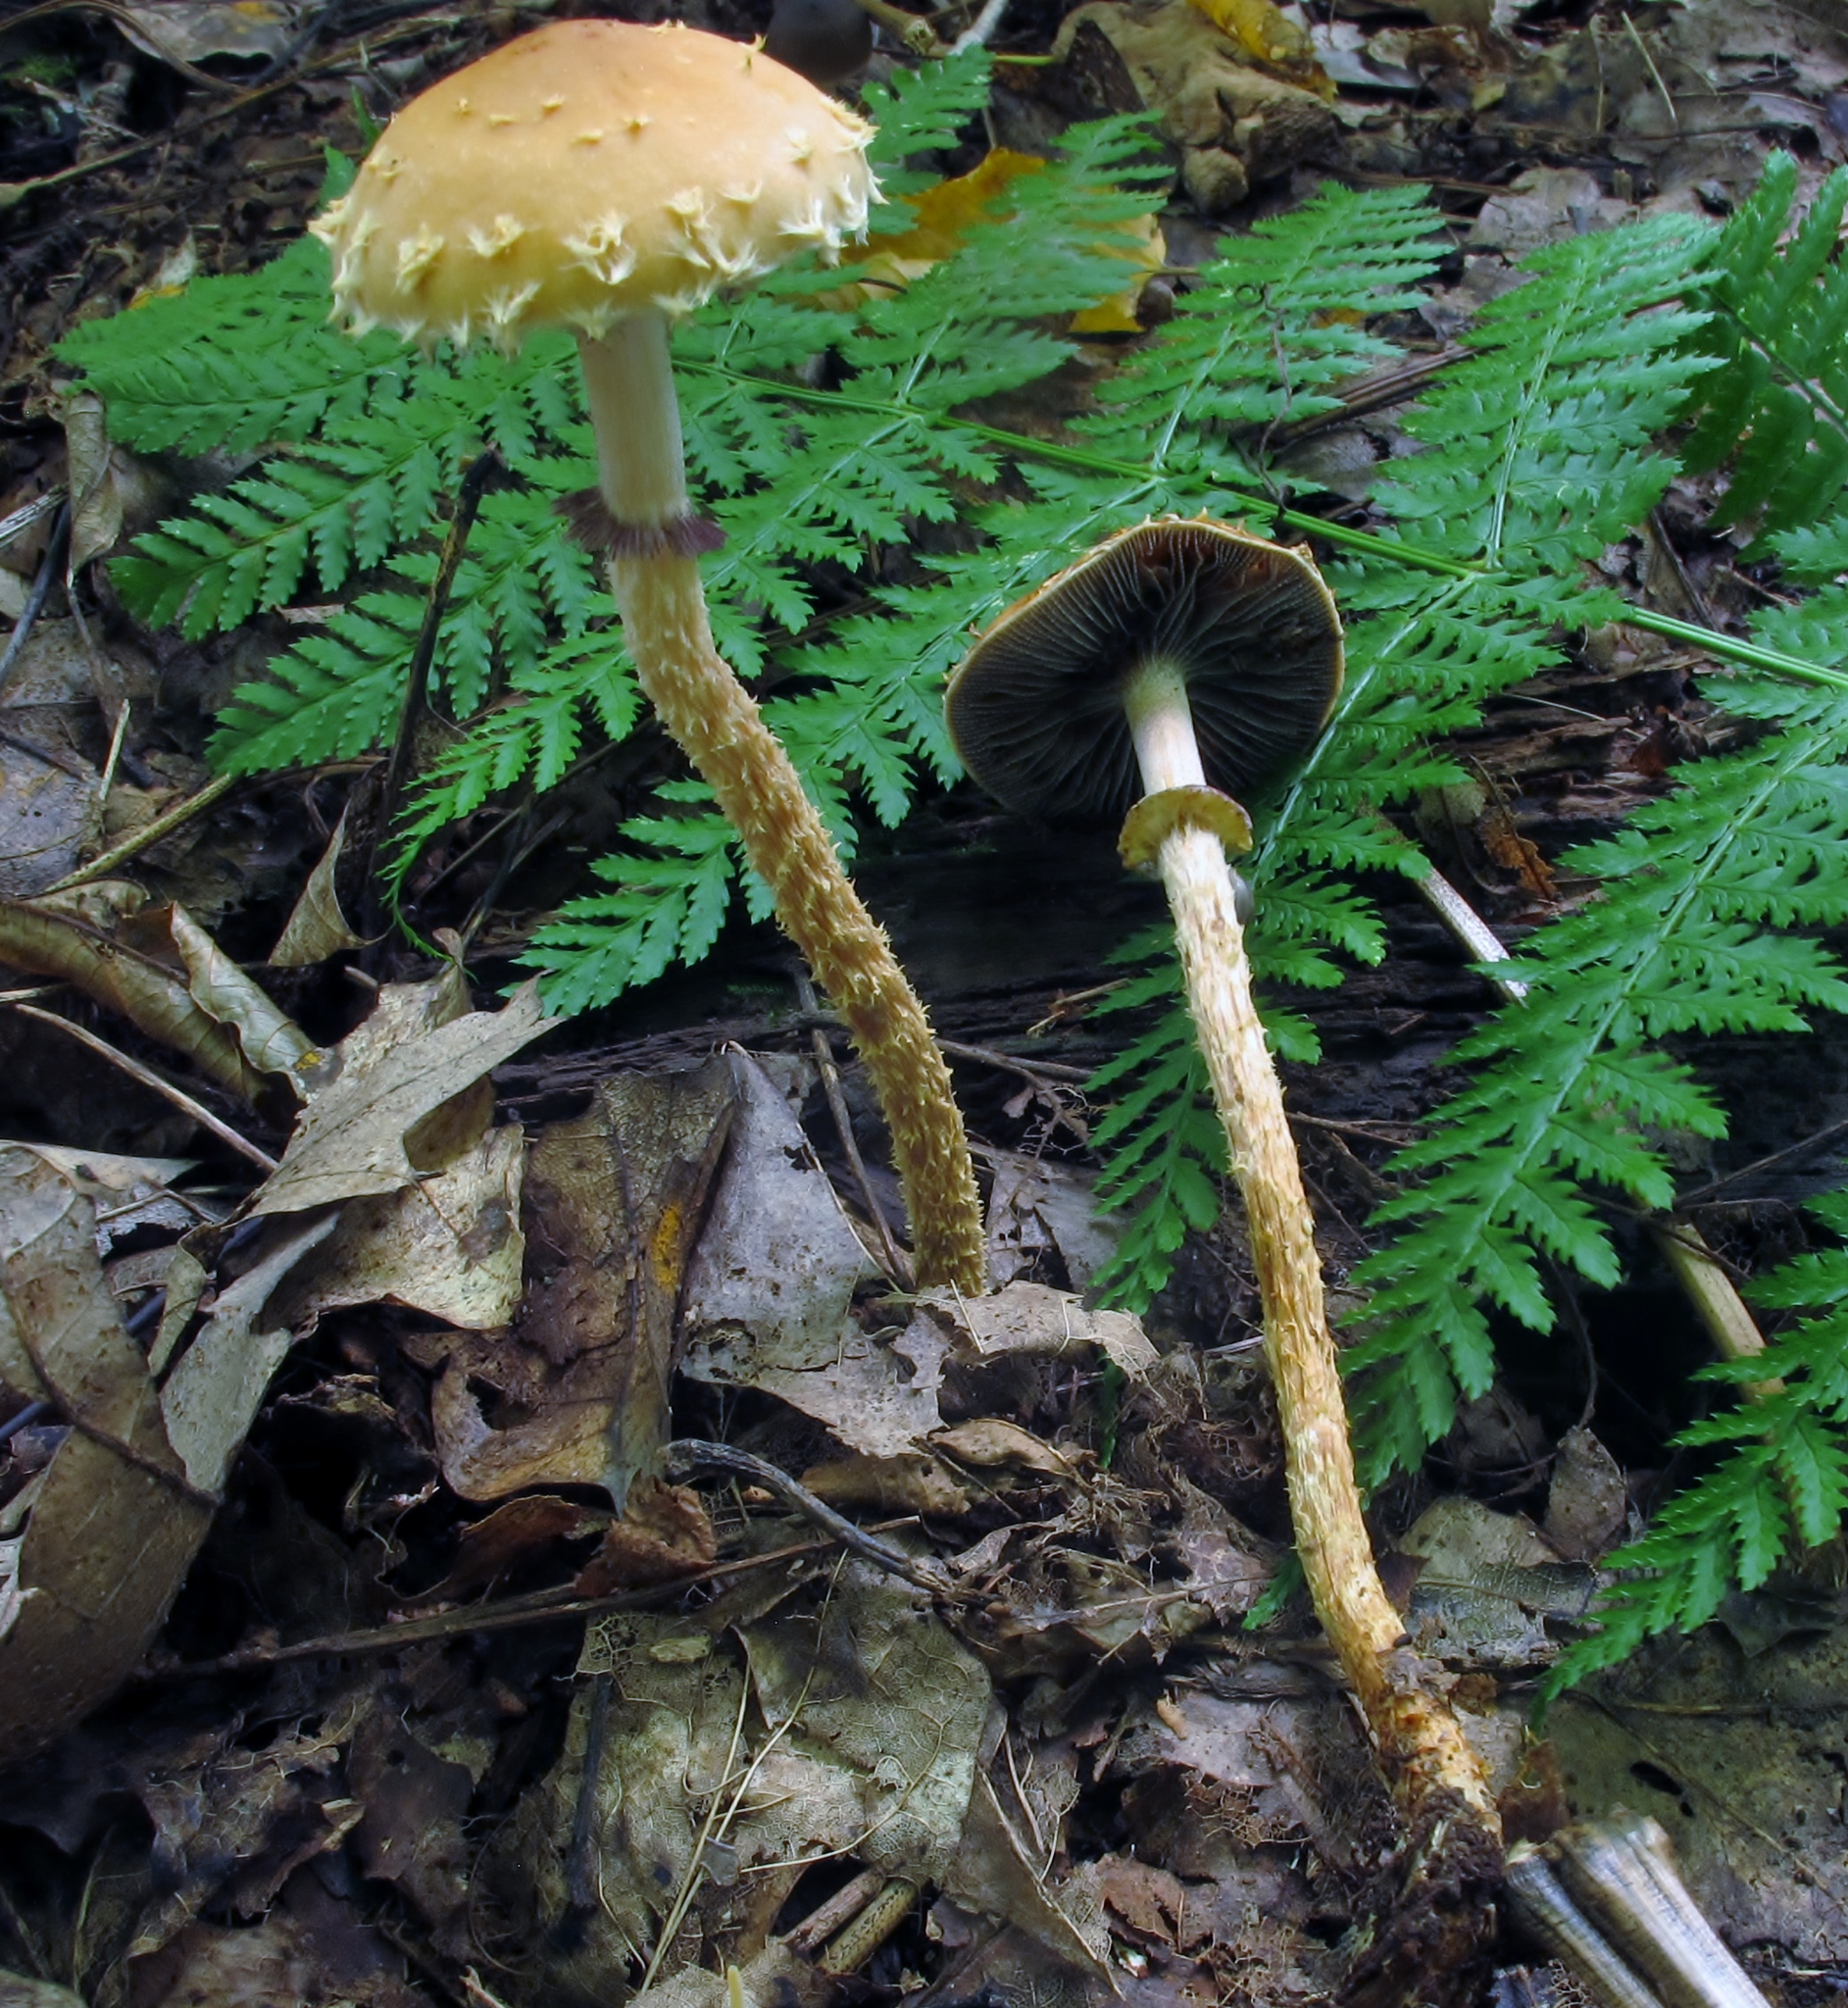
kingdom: Fungi
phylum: Basidiomycota
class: Agaricomycetes
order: Agaricales
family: Strophariaceae
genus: Leratiomyces
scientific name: Leratiomyces squamosus
